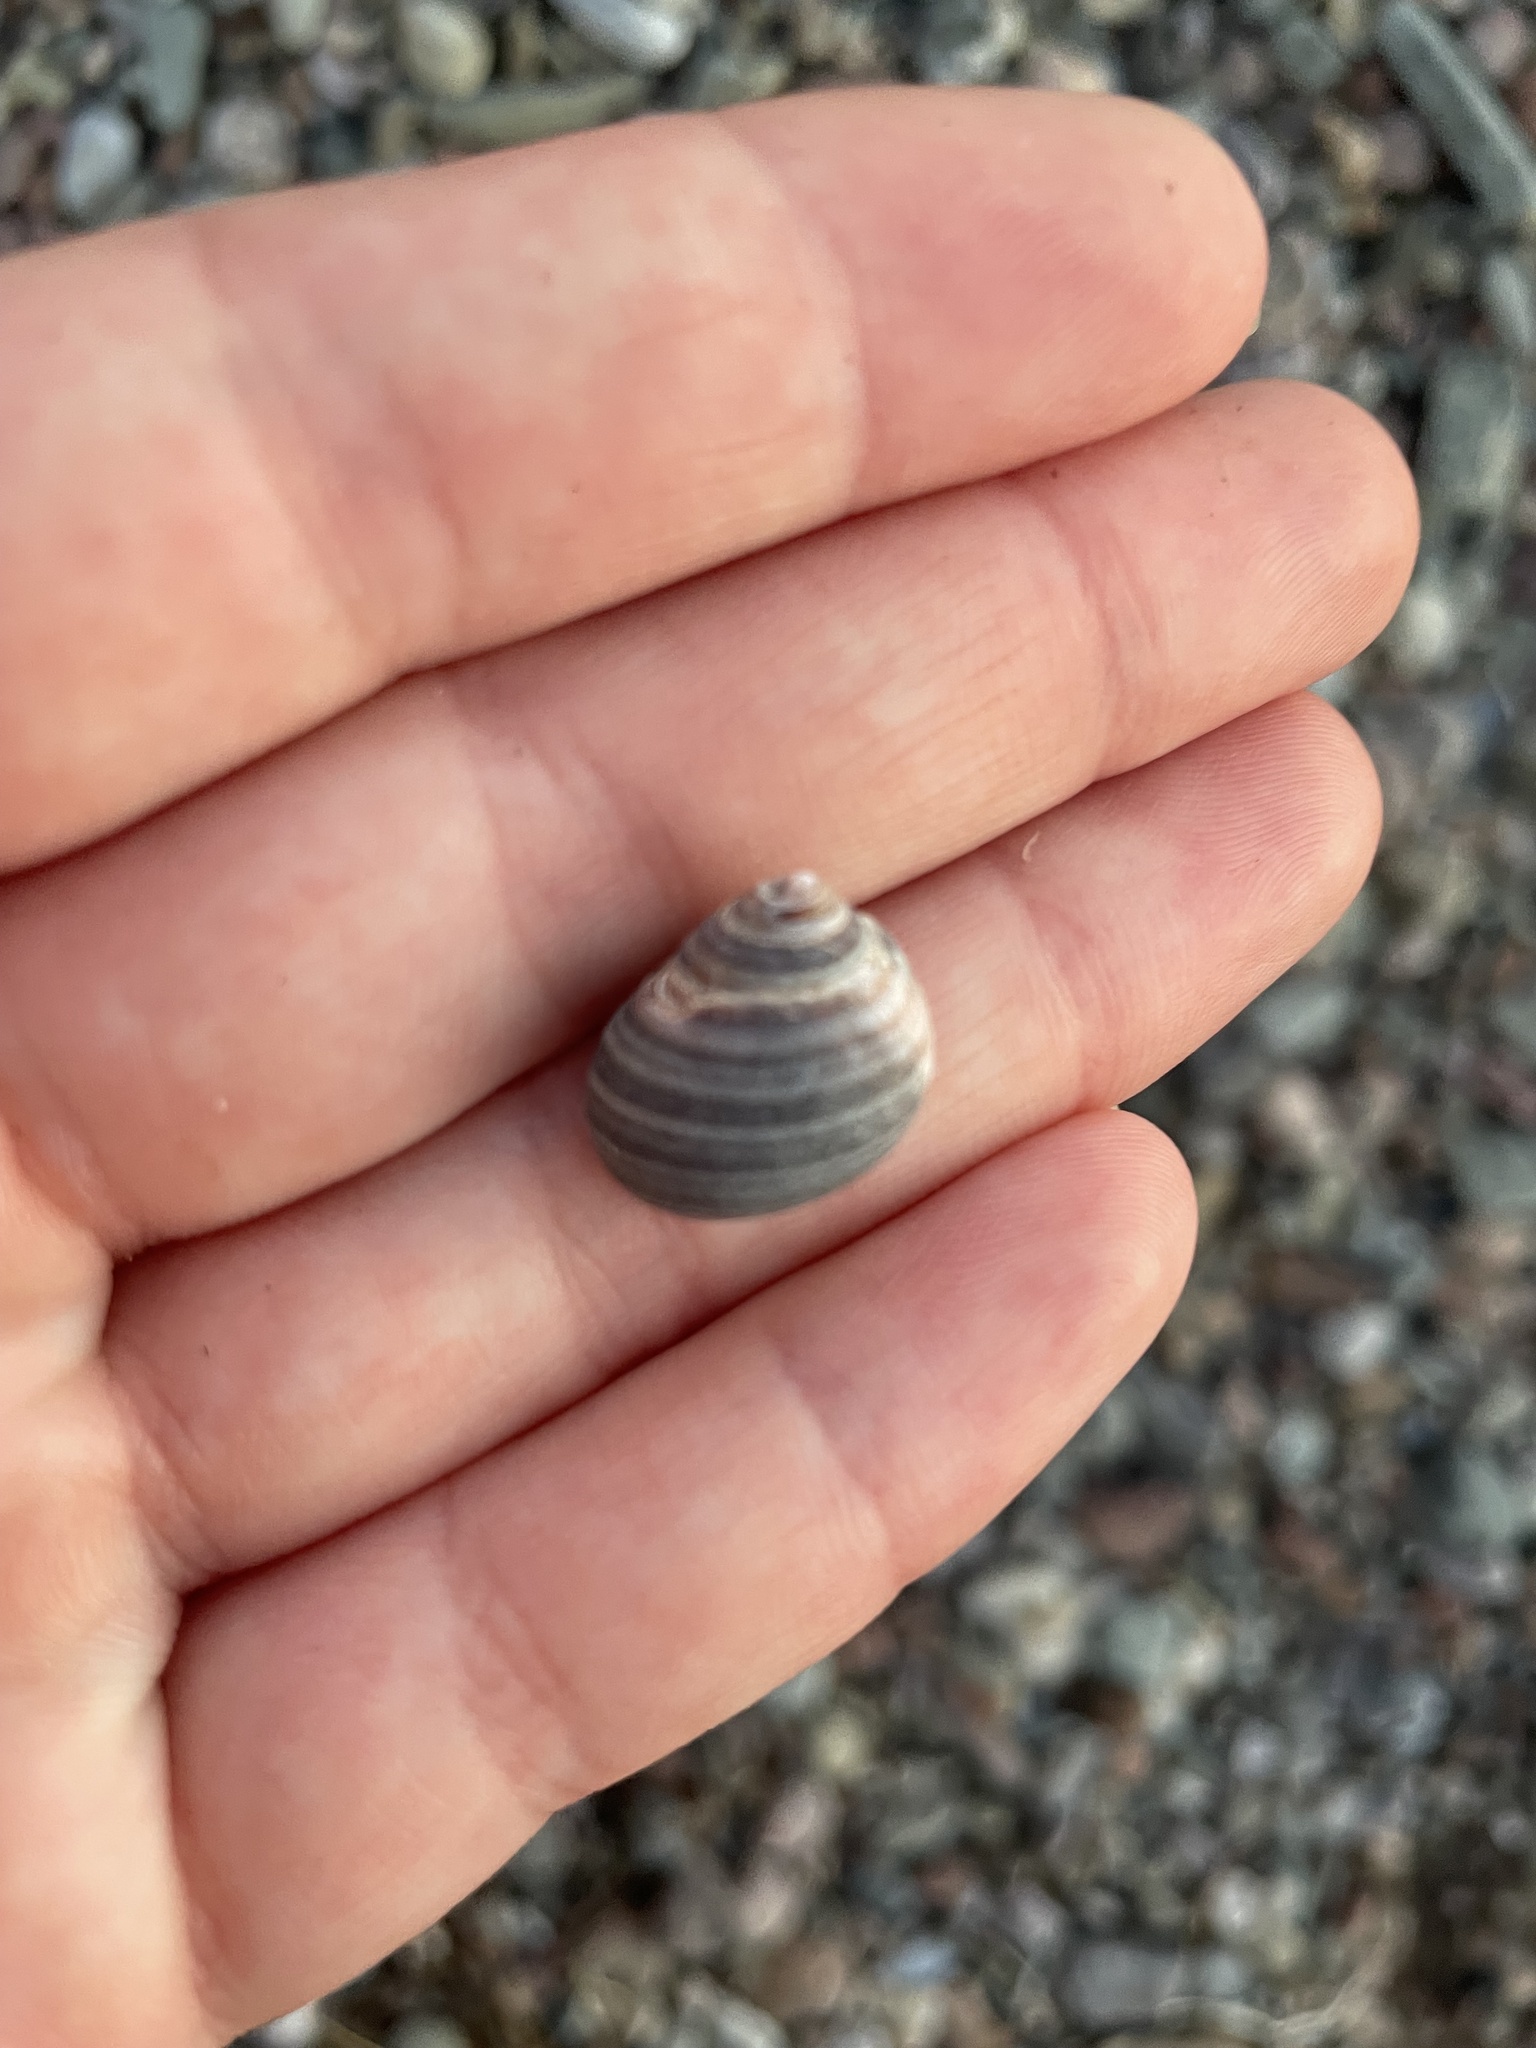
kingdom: Animalia
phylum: Mollusca
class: Gastropoda
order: Littorinimorpha
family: Littorinidae
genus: Littorina
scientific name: Littorina littorea
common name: Common periwinkle
